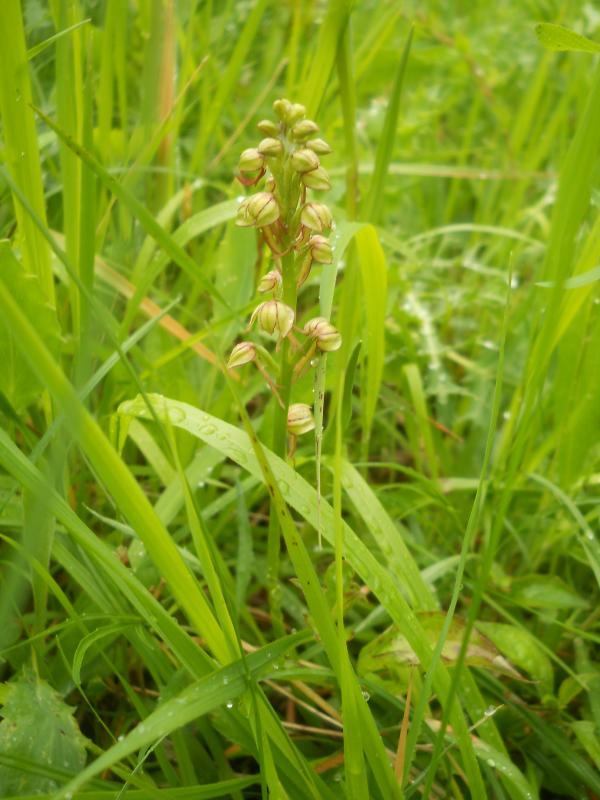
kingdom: Plantae
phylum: Tracheophyta
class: Liliopsida
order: Asparagales
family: Orchidaceae
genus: Orchis
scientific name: Orchis anthropophora
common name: Man orchid
